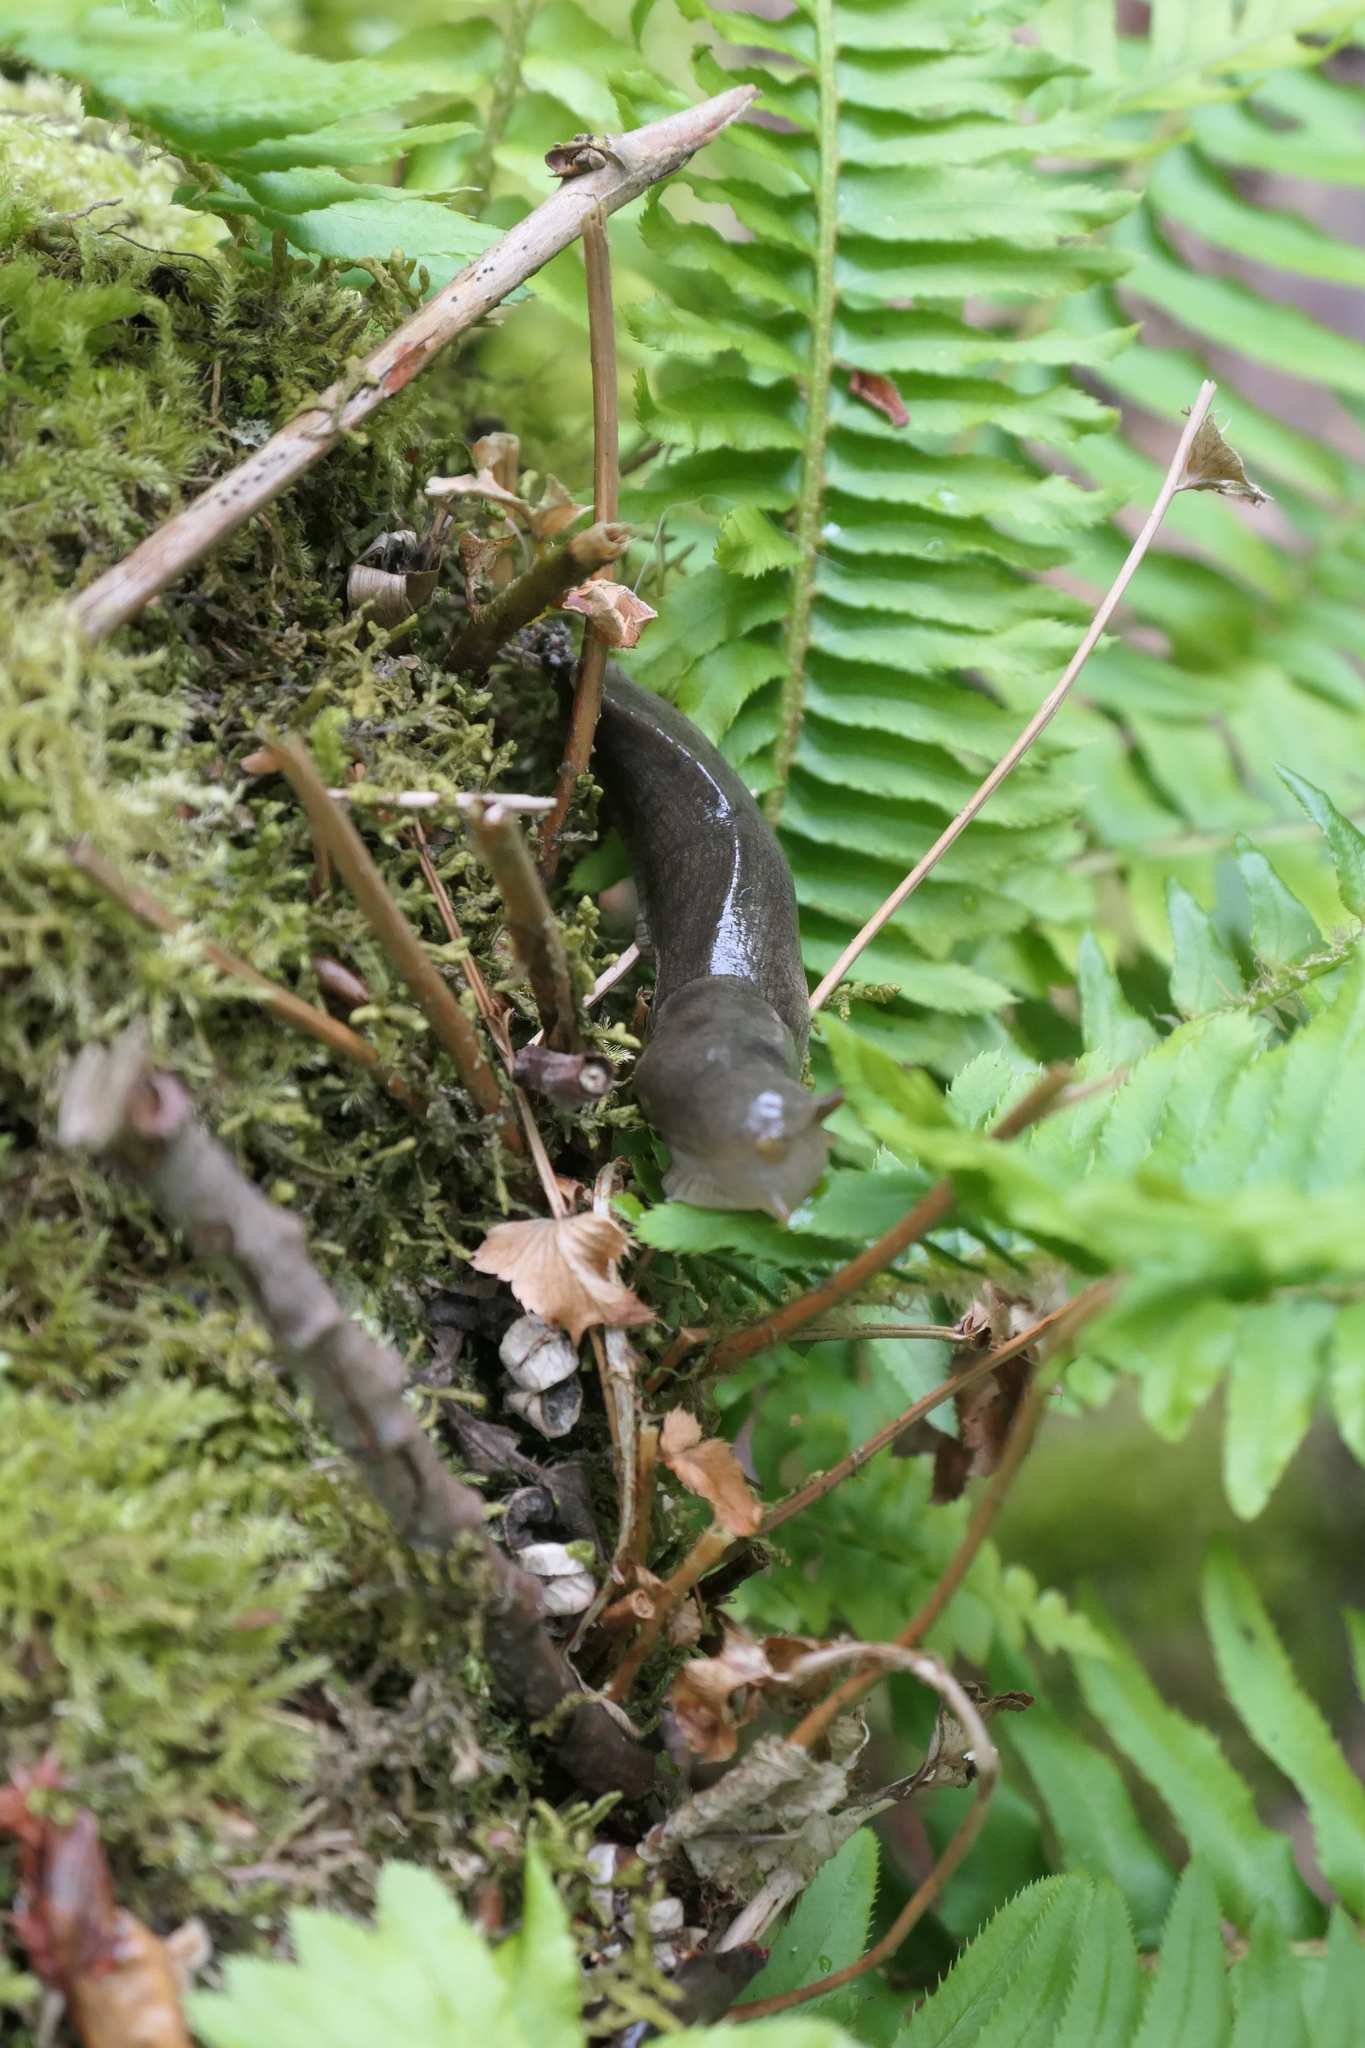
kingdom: Animalia
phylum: Mollusca
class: Gastropoda
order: Stylommatophora
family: Ariolimacidae
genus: Ariolimax
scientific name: Ariolimax columbianus
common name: Pacific banana slug
